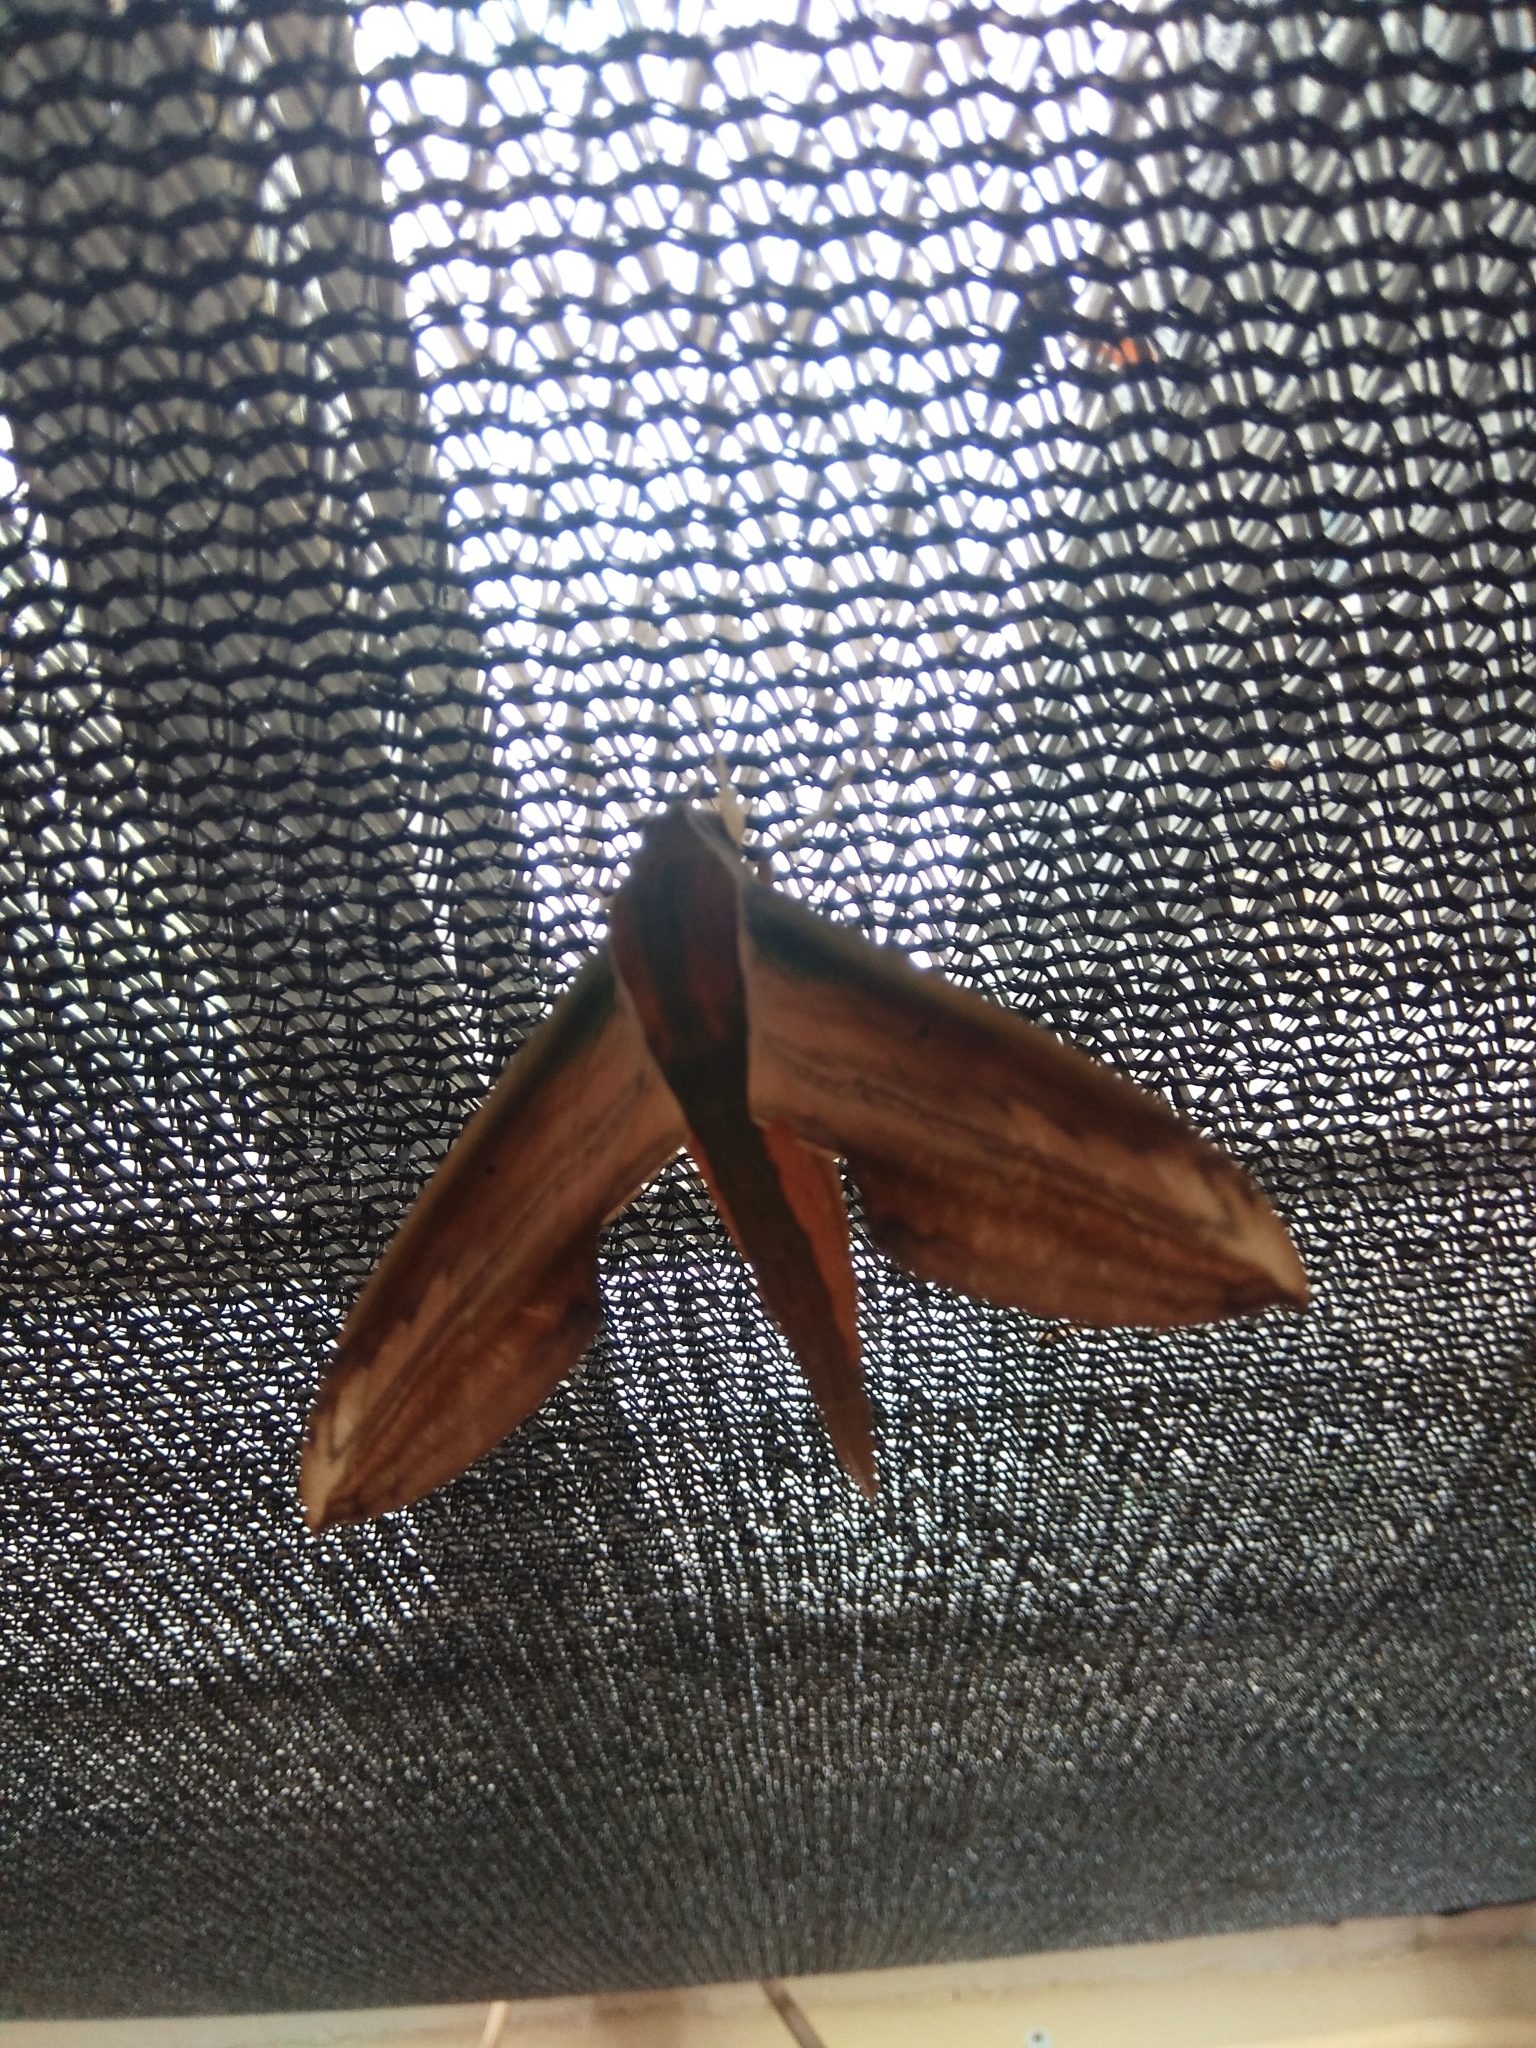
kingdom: Animalia
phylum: Arthropoda
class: Insecta
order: Lepidoptera
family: Sphingidae
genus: Theretra
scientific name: Theretra nessus
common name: Yam hawk moth
